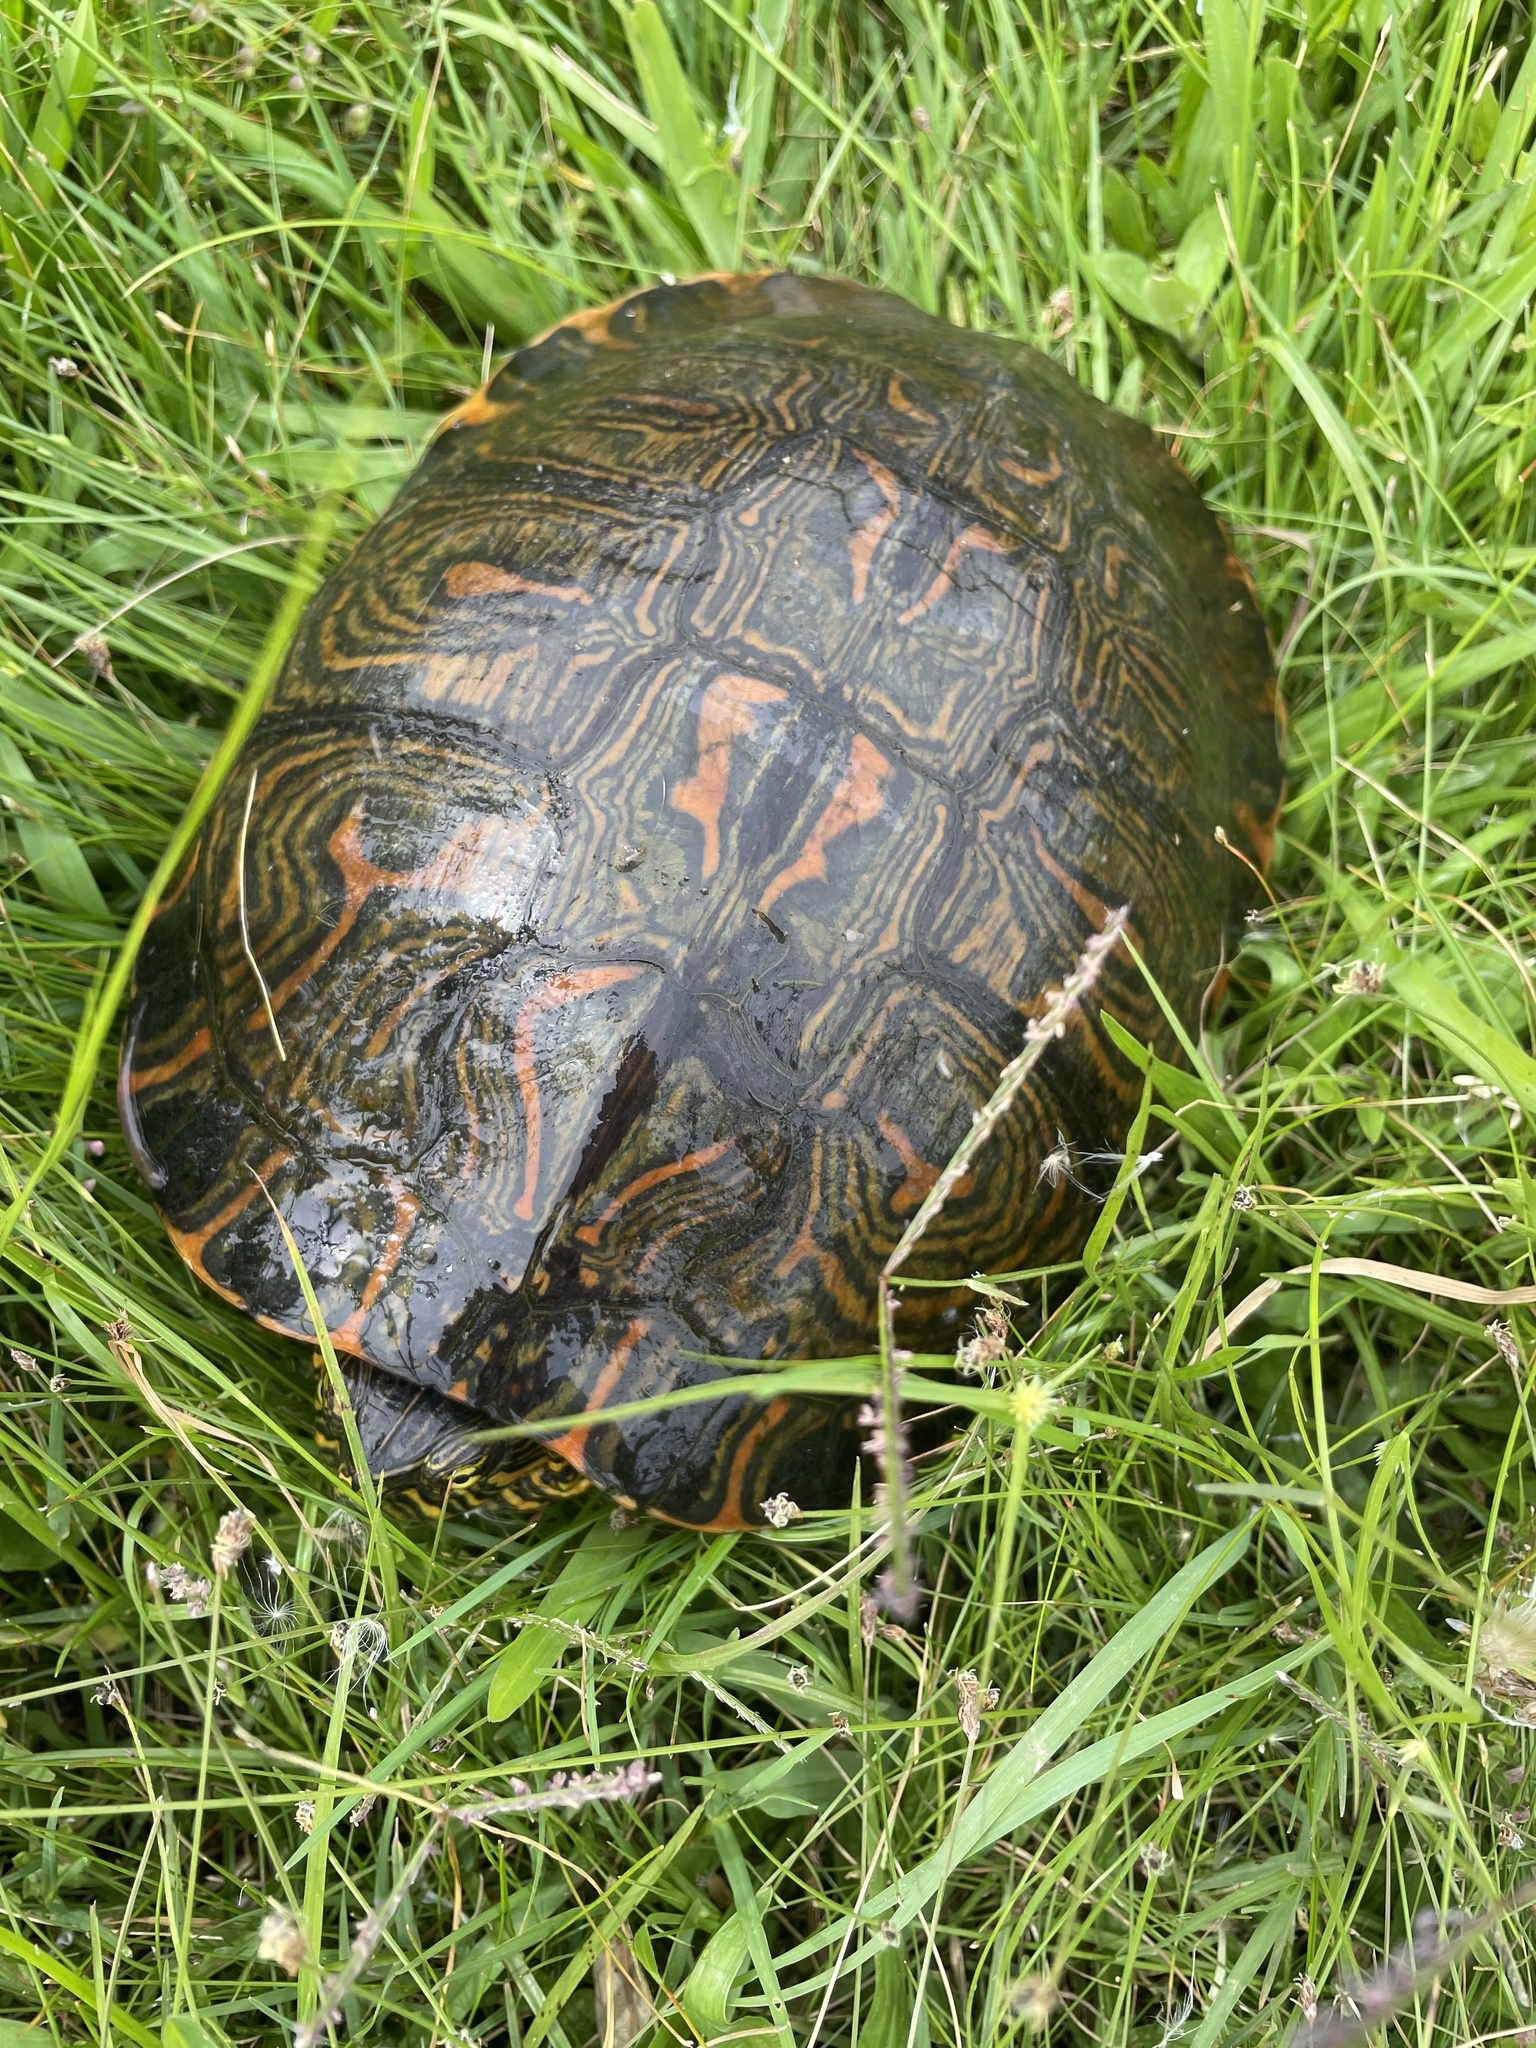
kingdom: Animalia
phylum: Chordata
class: Testudines
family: Emydidae
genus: Trachemys
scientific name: Trachemys dorbigni
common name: Black-bellied slider
